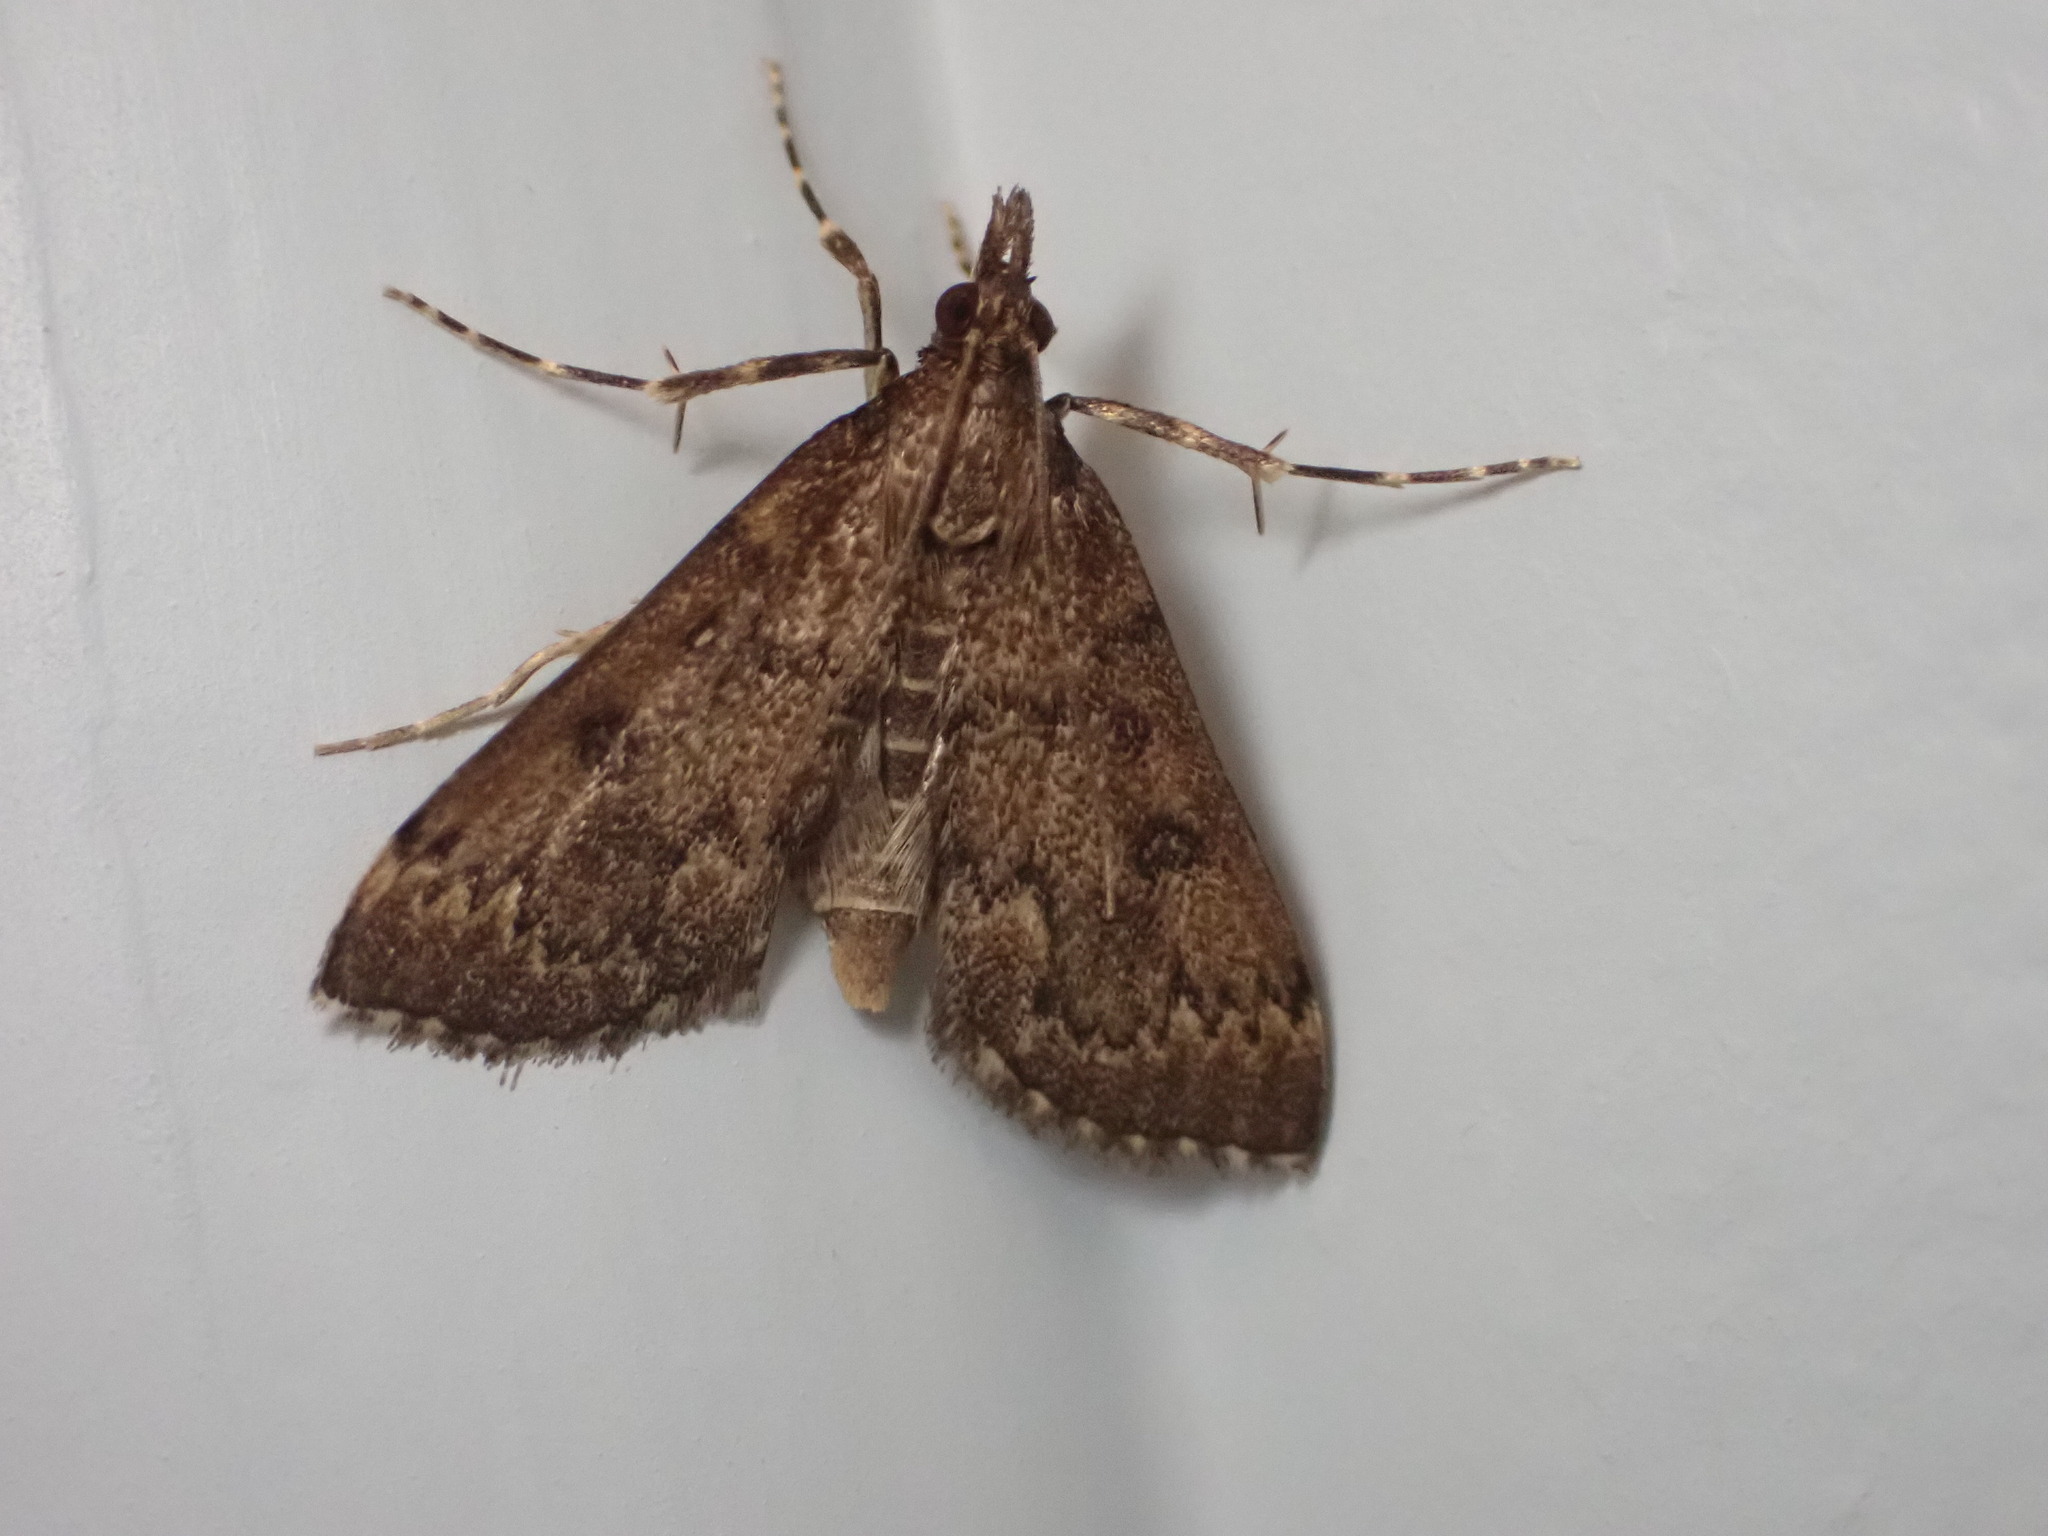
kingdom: Animalia
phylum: Arthropoda
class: Insecta
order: Lepidoptera
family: Crambidae
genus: Loxostege
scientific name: Loxostege Proternia philocapna
